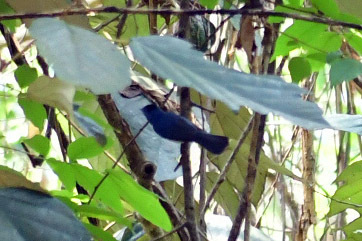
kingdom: Animalia
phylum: Chordata
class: Aves
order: Passeriformes
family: Monarchidae
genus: Hypothymis
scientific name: Hypothymis azurea
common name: Black-naped monarch
